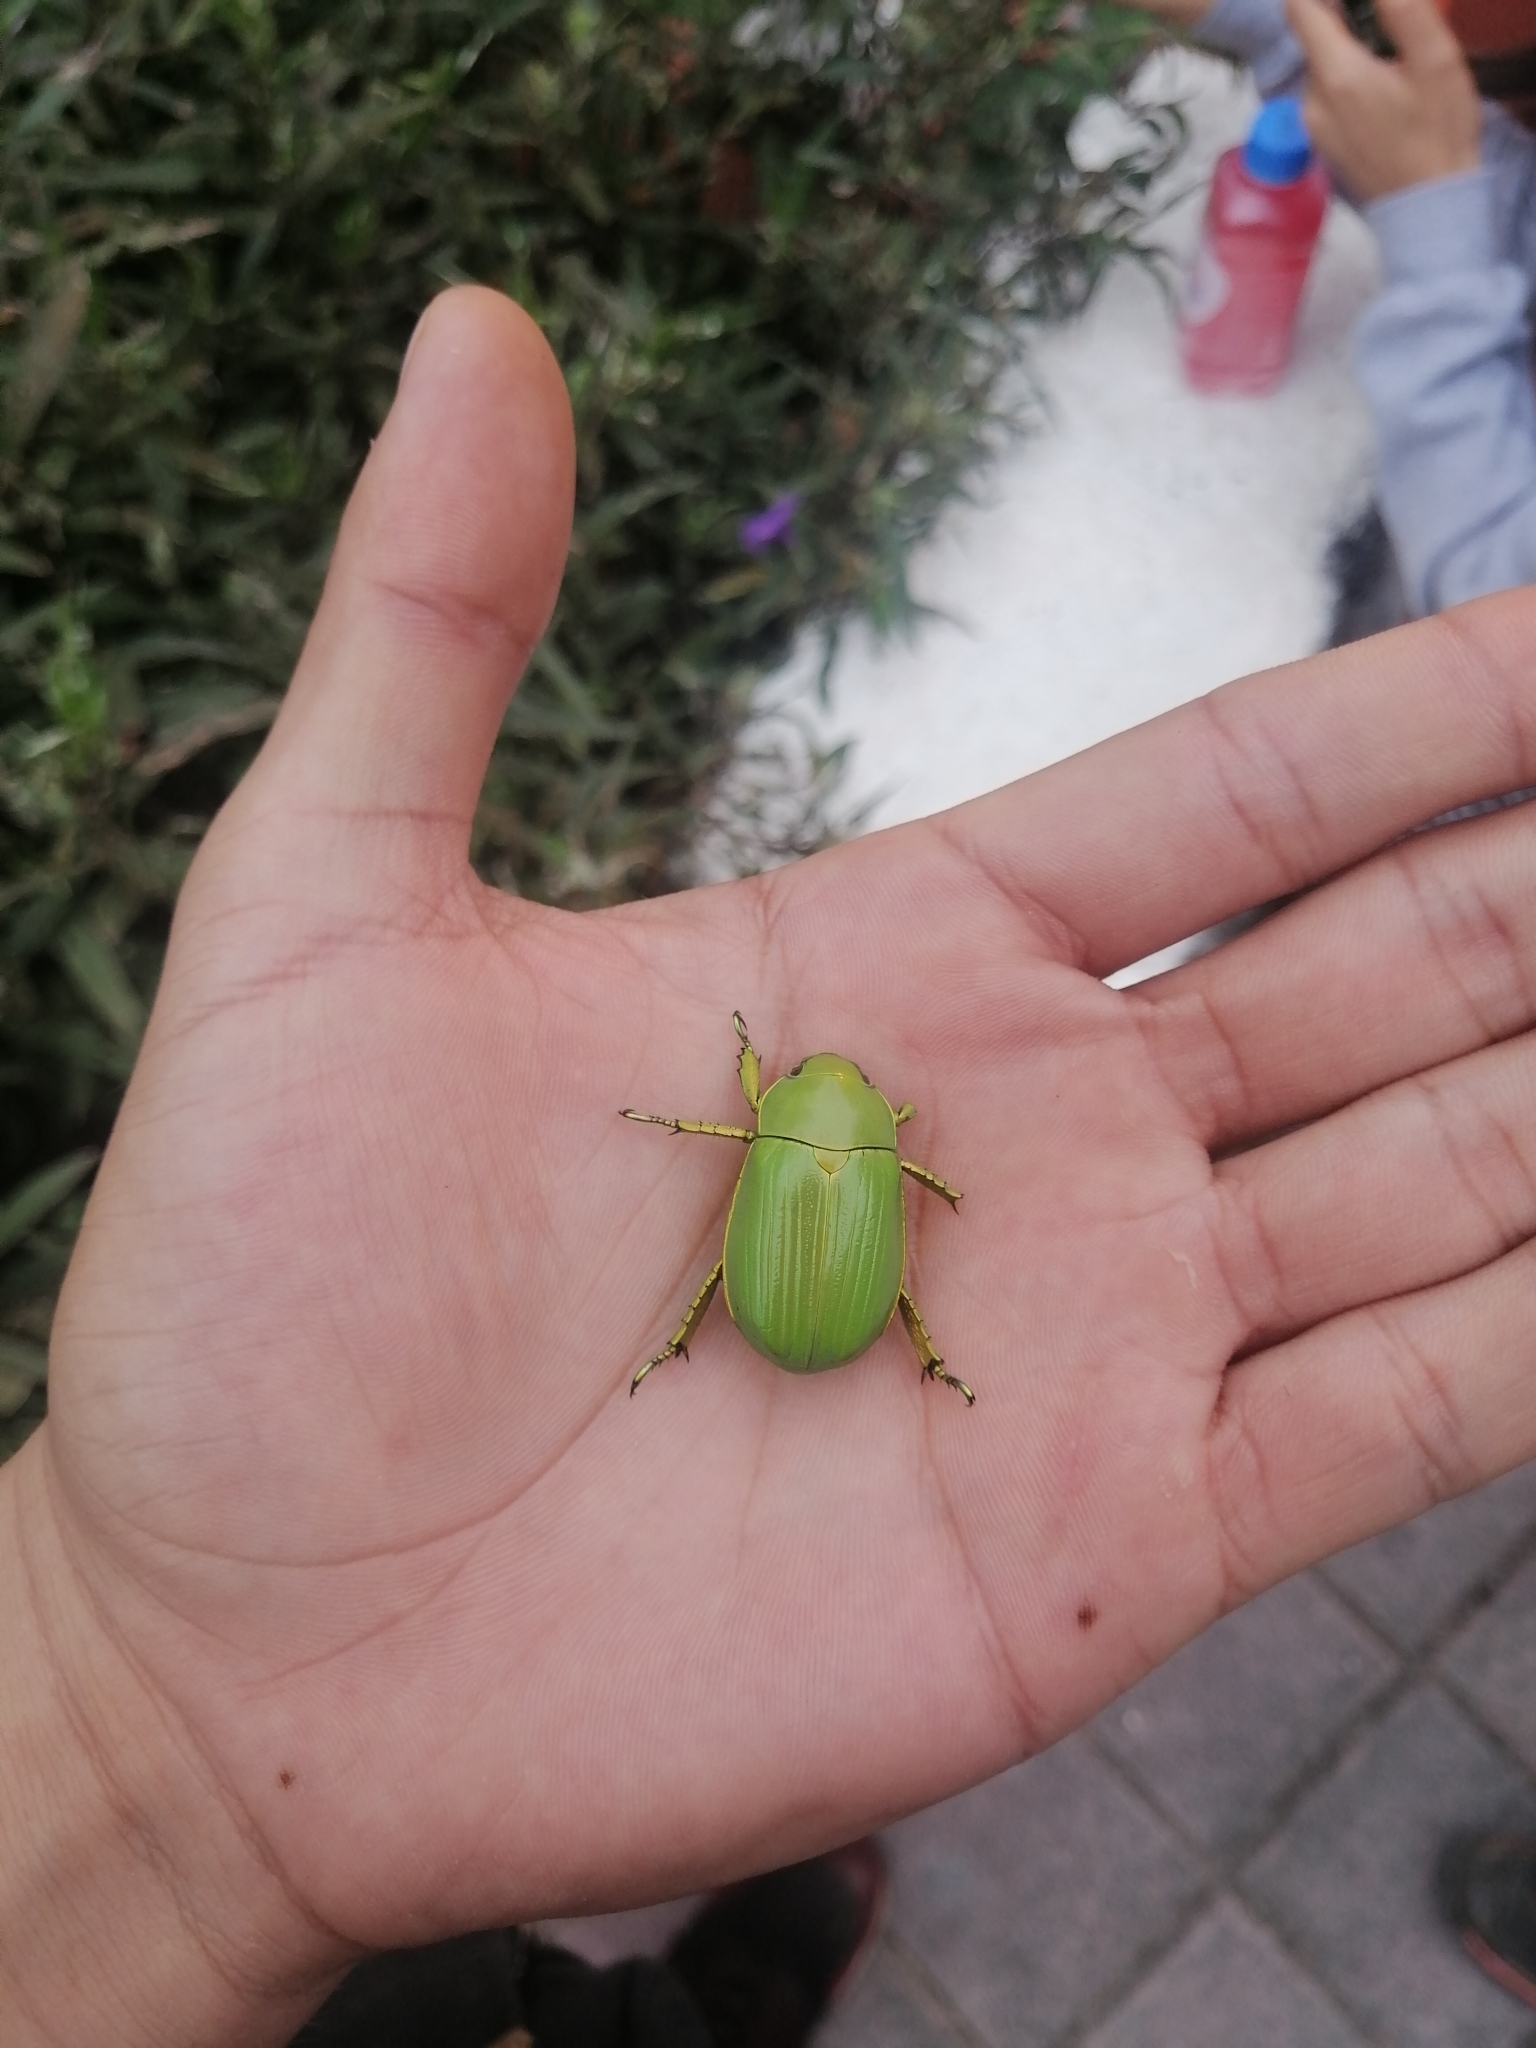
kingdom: Animalia
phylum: Arthropoda
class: Insecta
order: Coleoptera
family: Scarabaeidae
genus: Chrysina
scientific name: Chrysina psittacina
